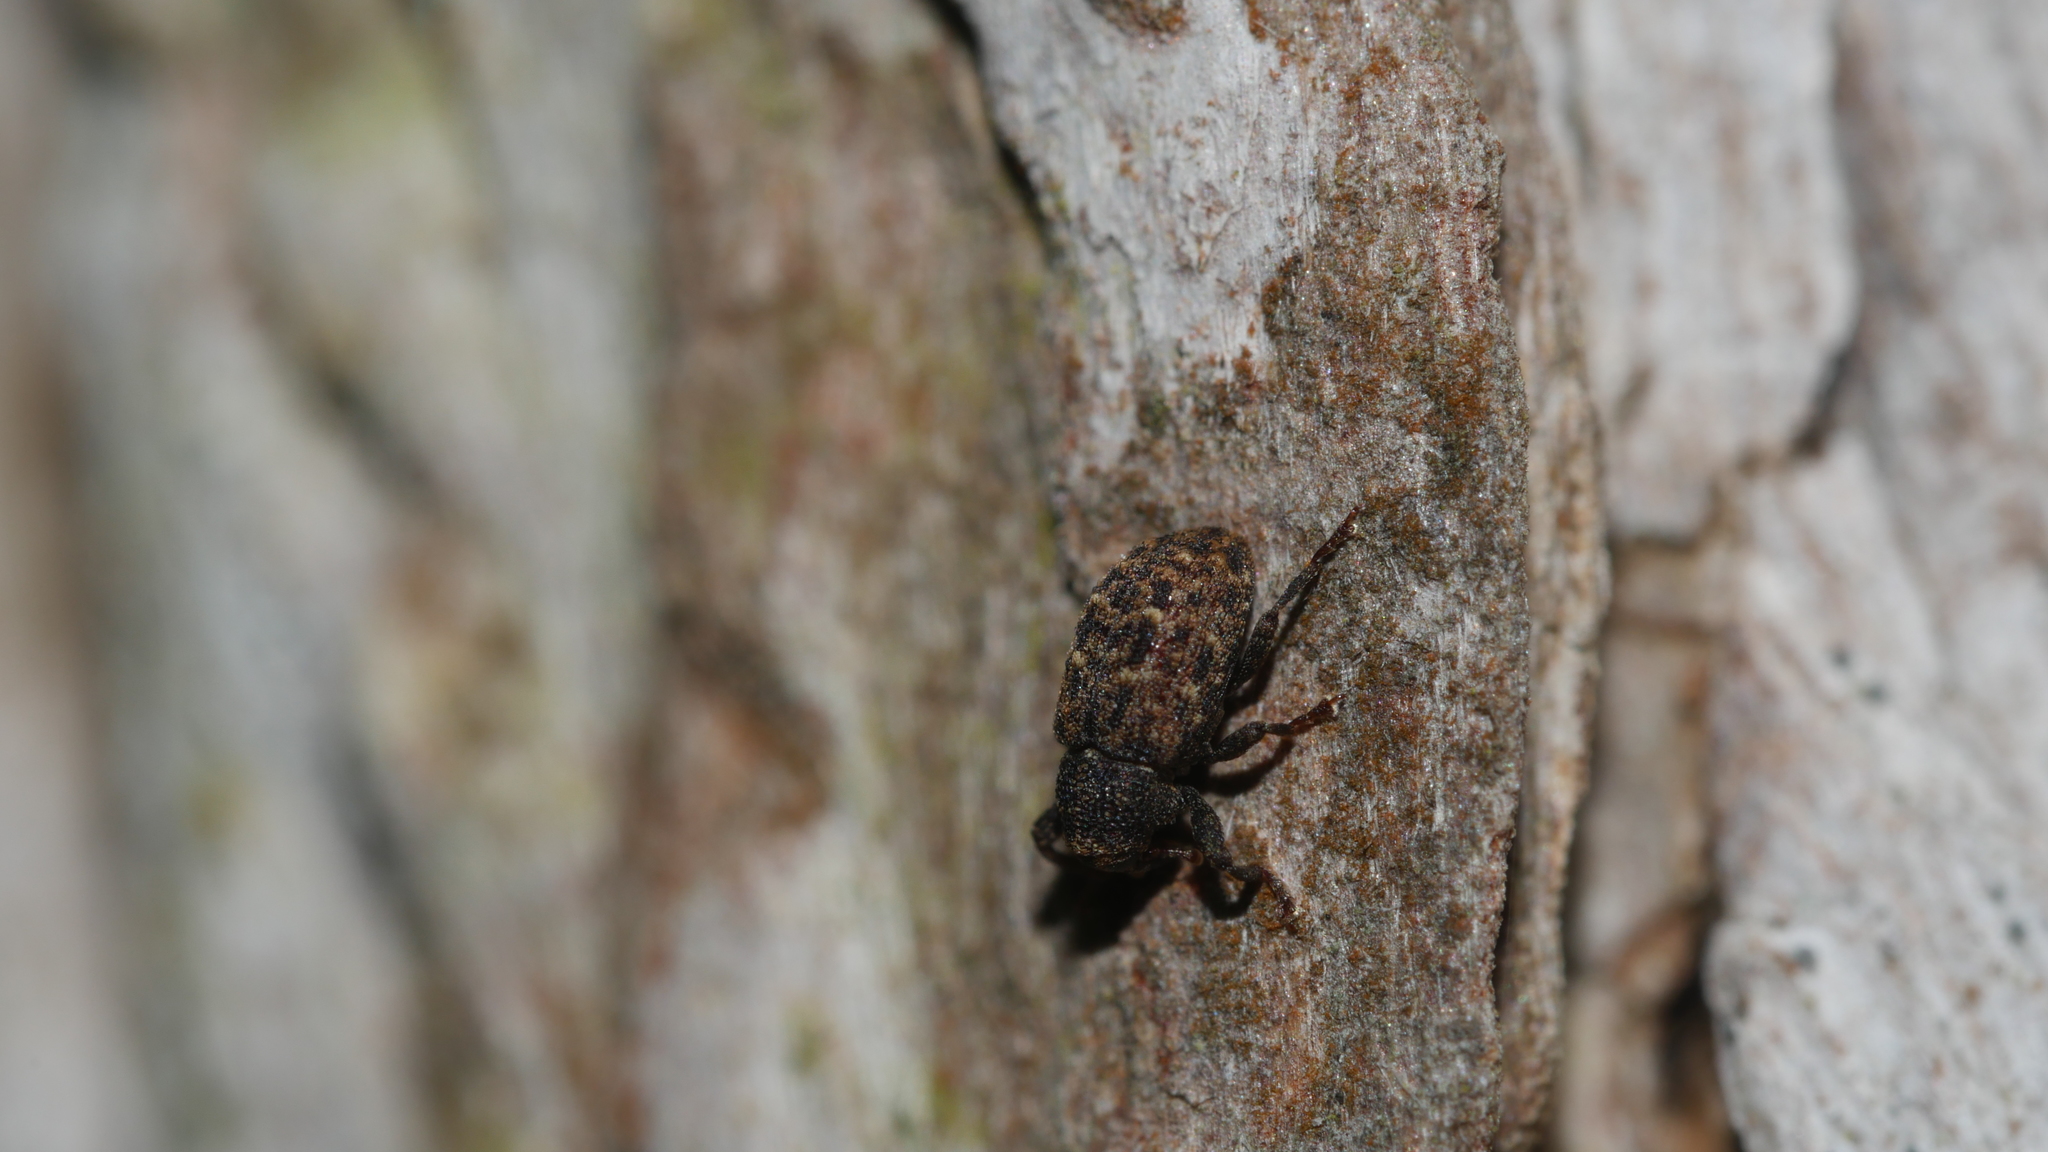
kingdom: Animalia
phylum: Arthropoda
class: Insecta
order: Coleoptera
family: Curculionidae
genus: Apteromechus
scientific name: Apteromechus ferratus
